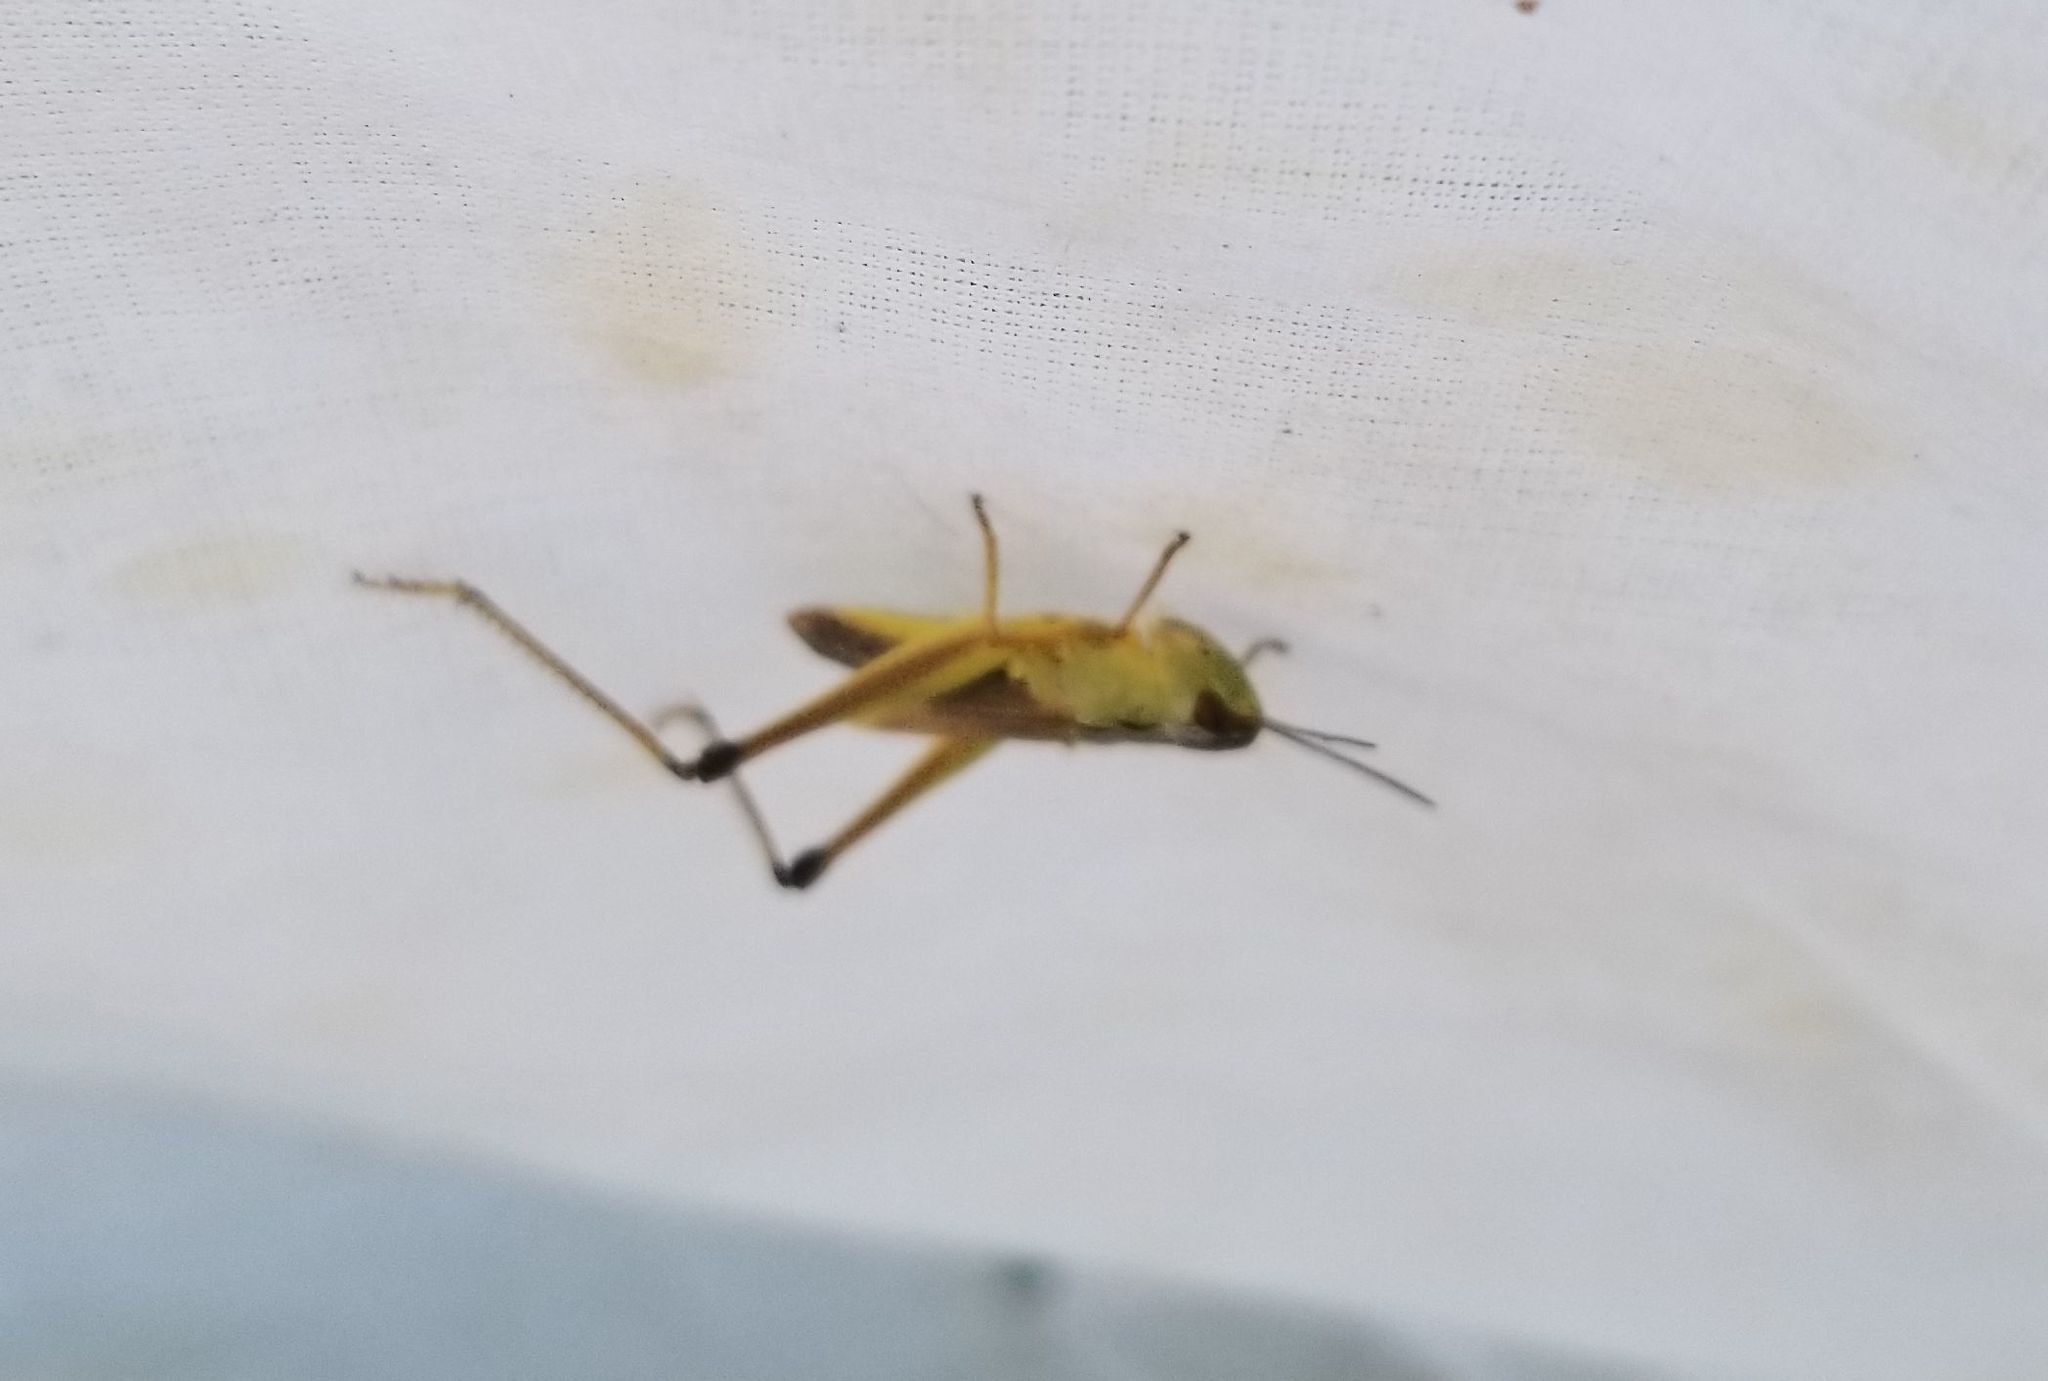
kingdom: Animalia
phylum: Arthropoda
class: Insecta
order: Orthoptera
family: Acrididae
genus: Pseudochorthippus
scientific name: Pseudochorthippus curtipennis
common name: Marsh meadow grasshopper
